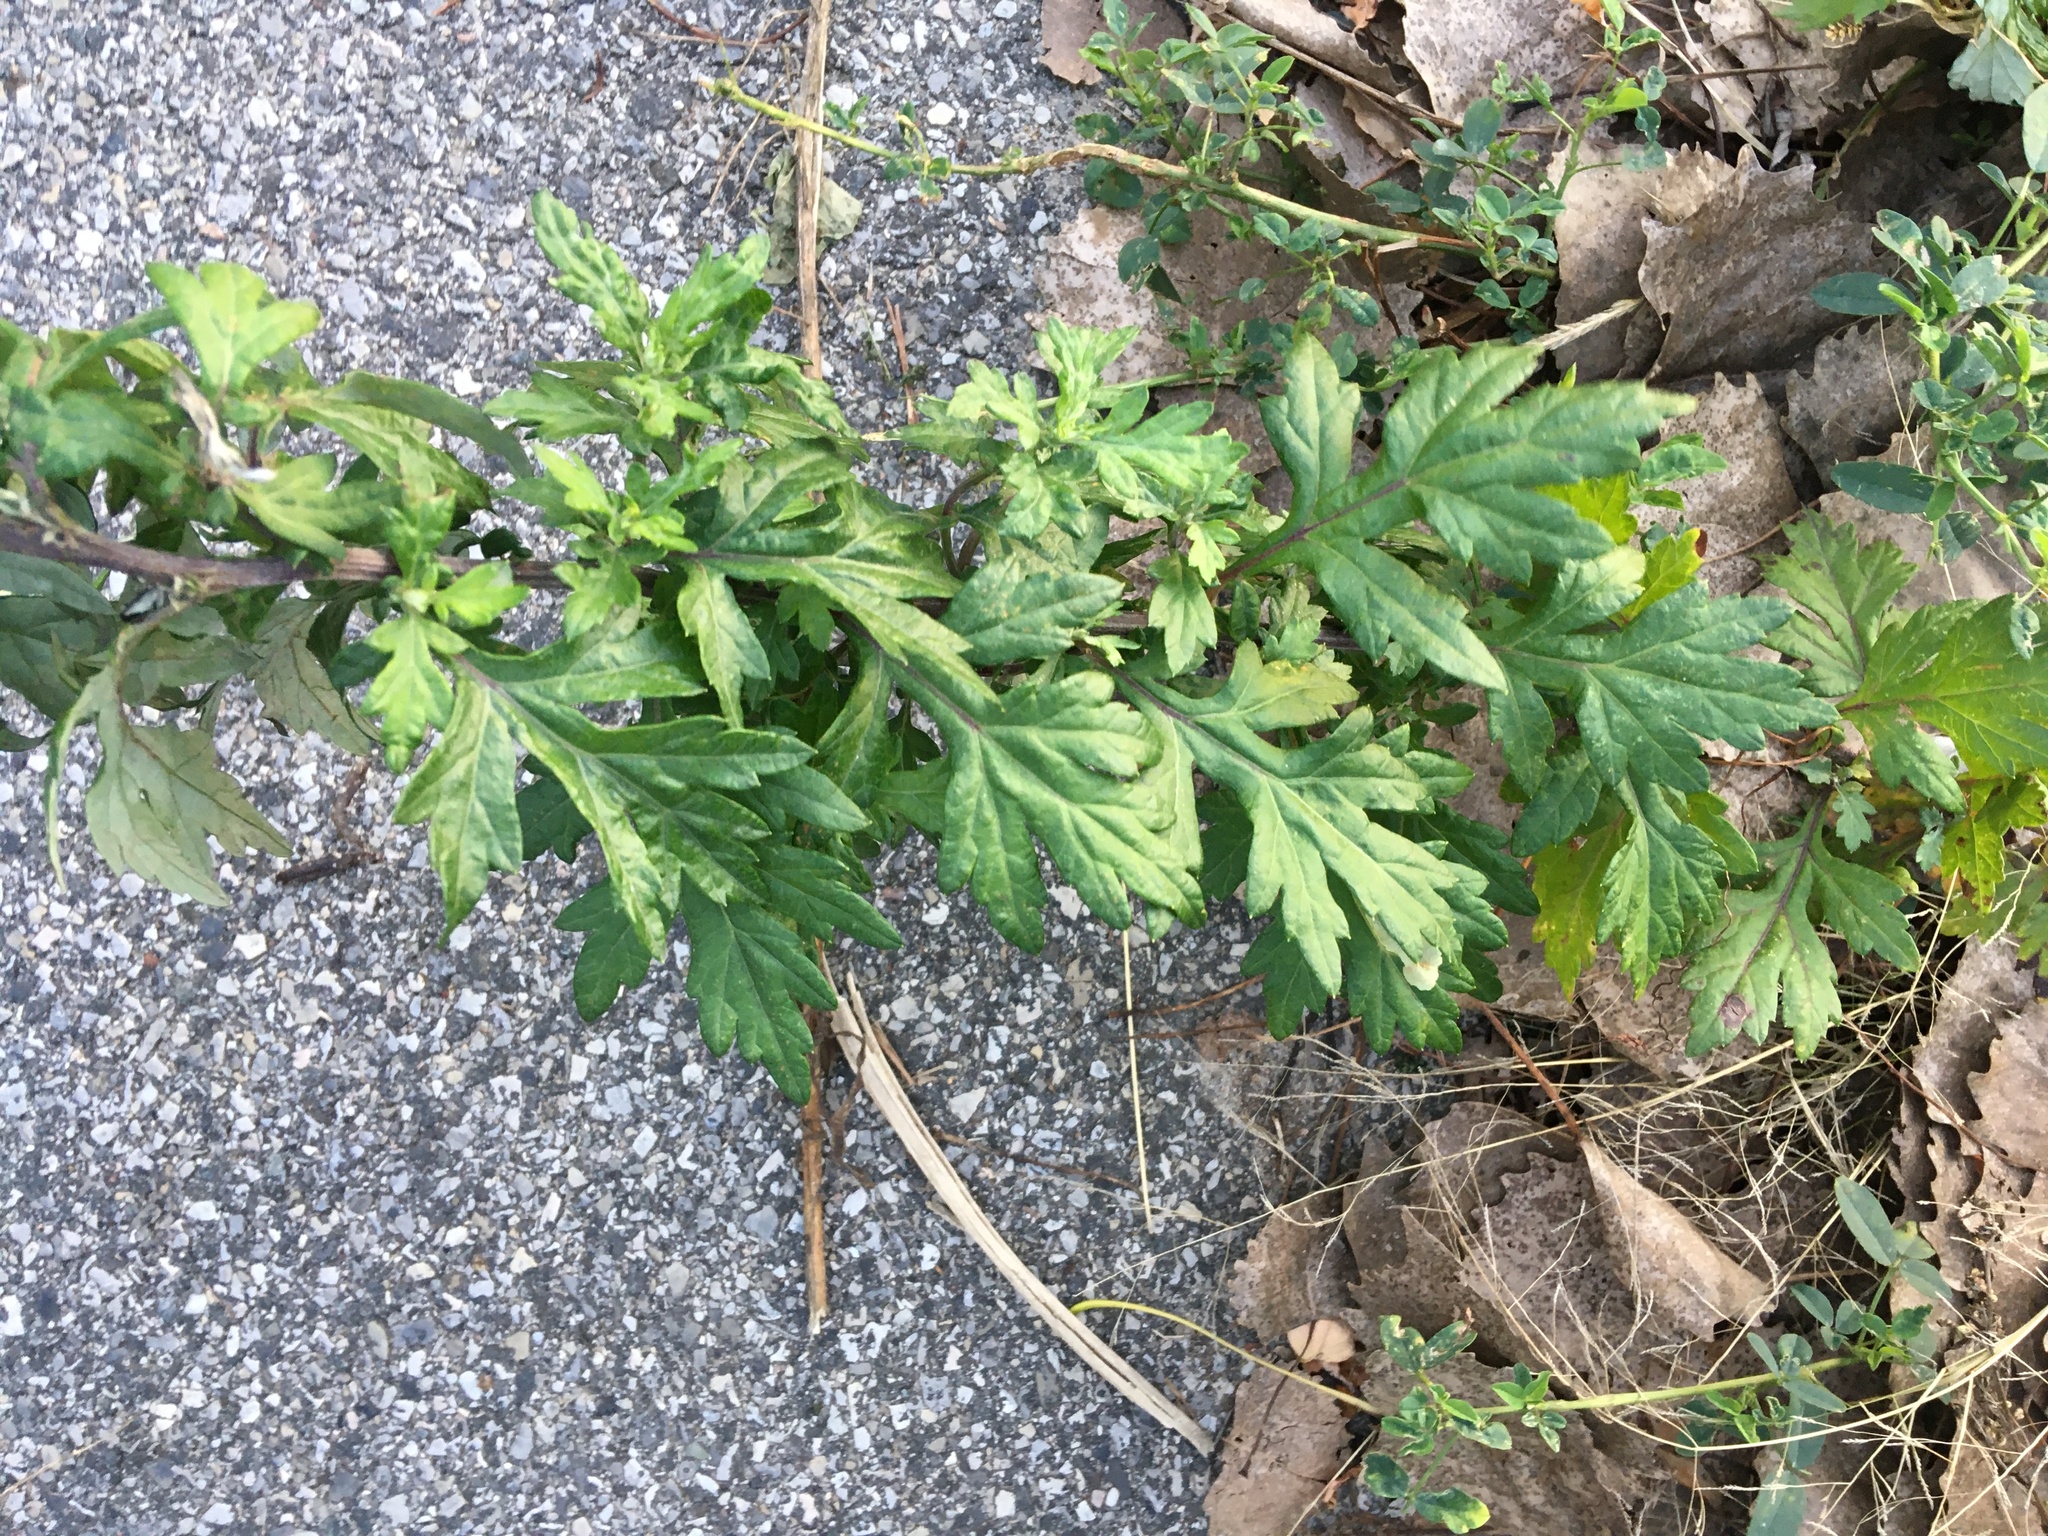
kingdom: Plantae
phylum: Tracheophyta
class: Magnoliopsida
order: Asterales
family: Asteraceae
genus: Artemisia
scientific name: Artemisia vulgaris
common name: Mugwort
